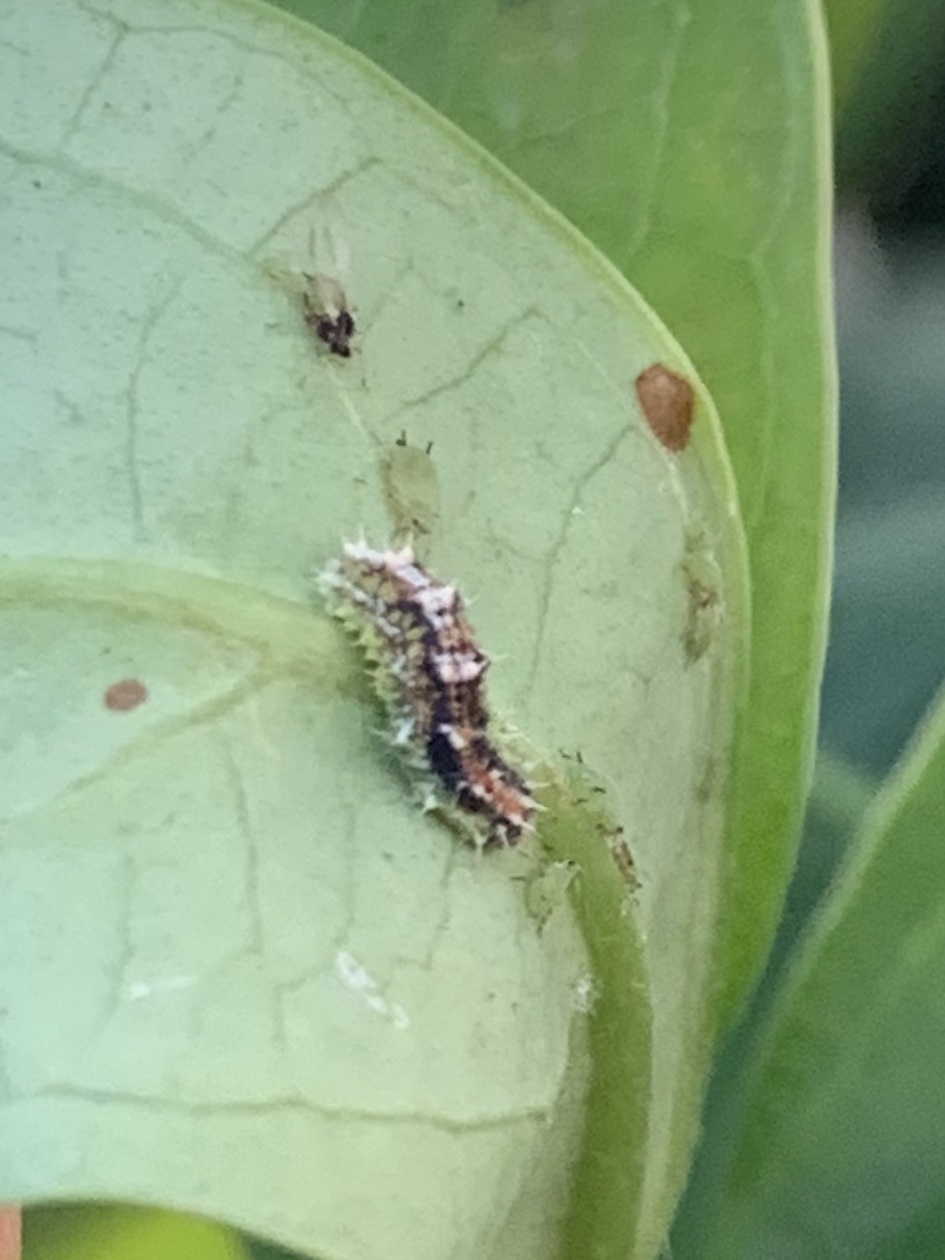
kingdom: Animalia
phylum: Arthropoda
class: Insecta
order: Diptera
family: Syrphidae
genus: Dioprosopa
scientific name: Dioprosopa clavatus
